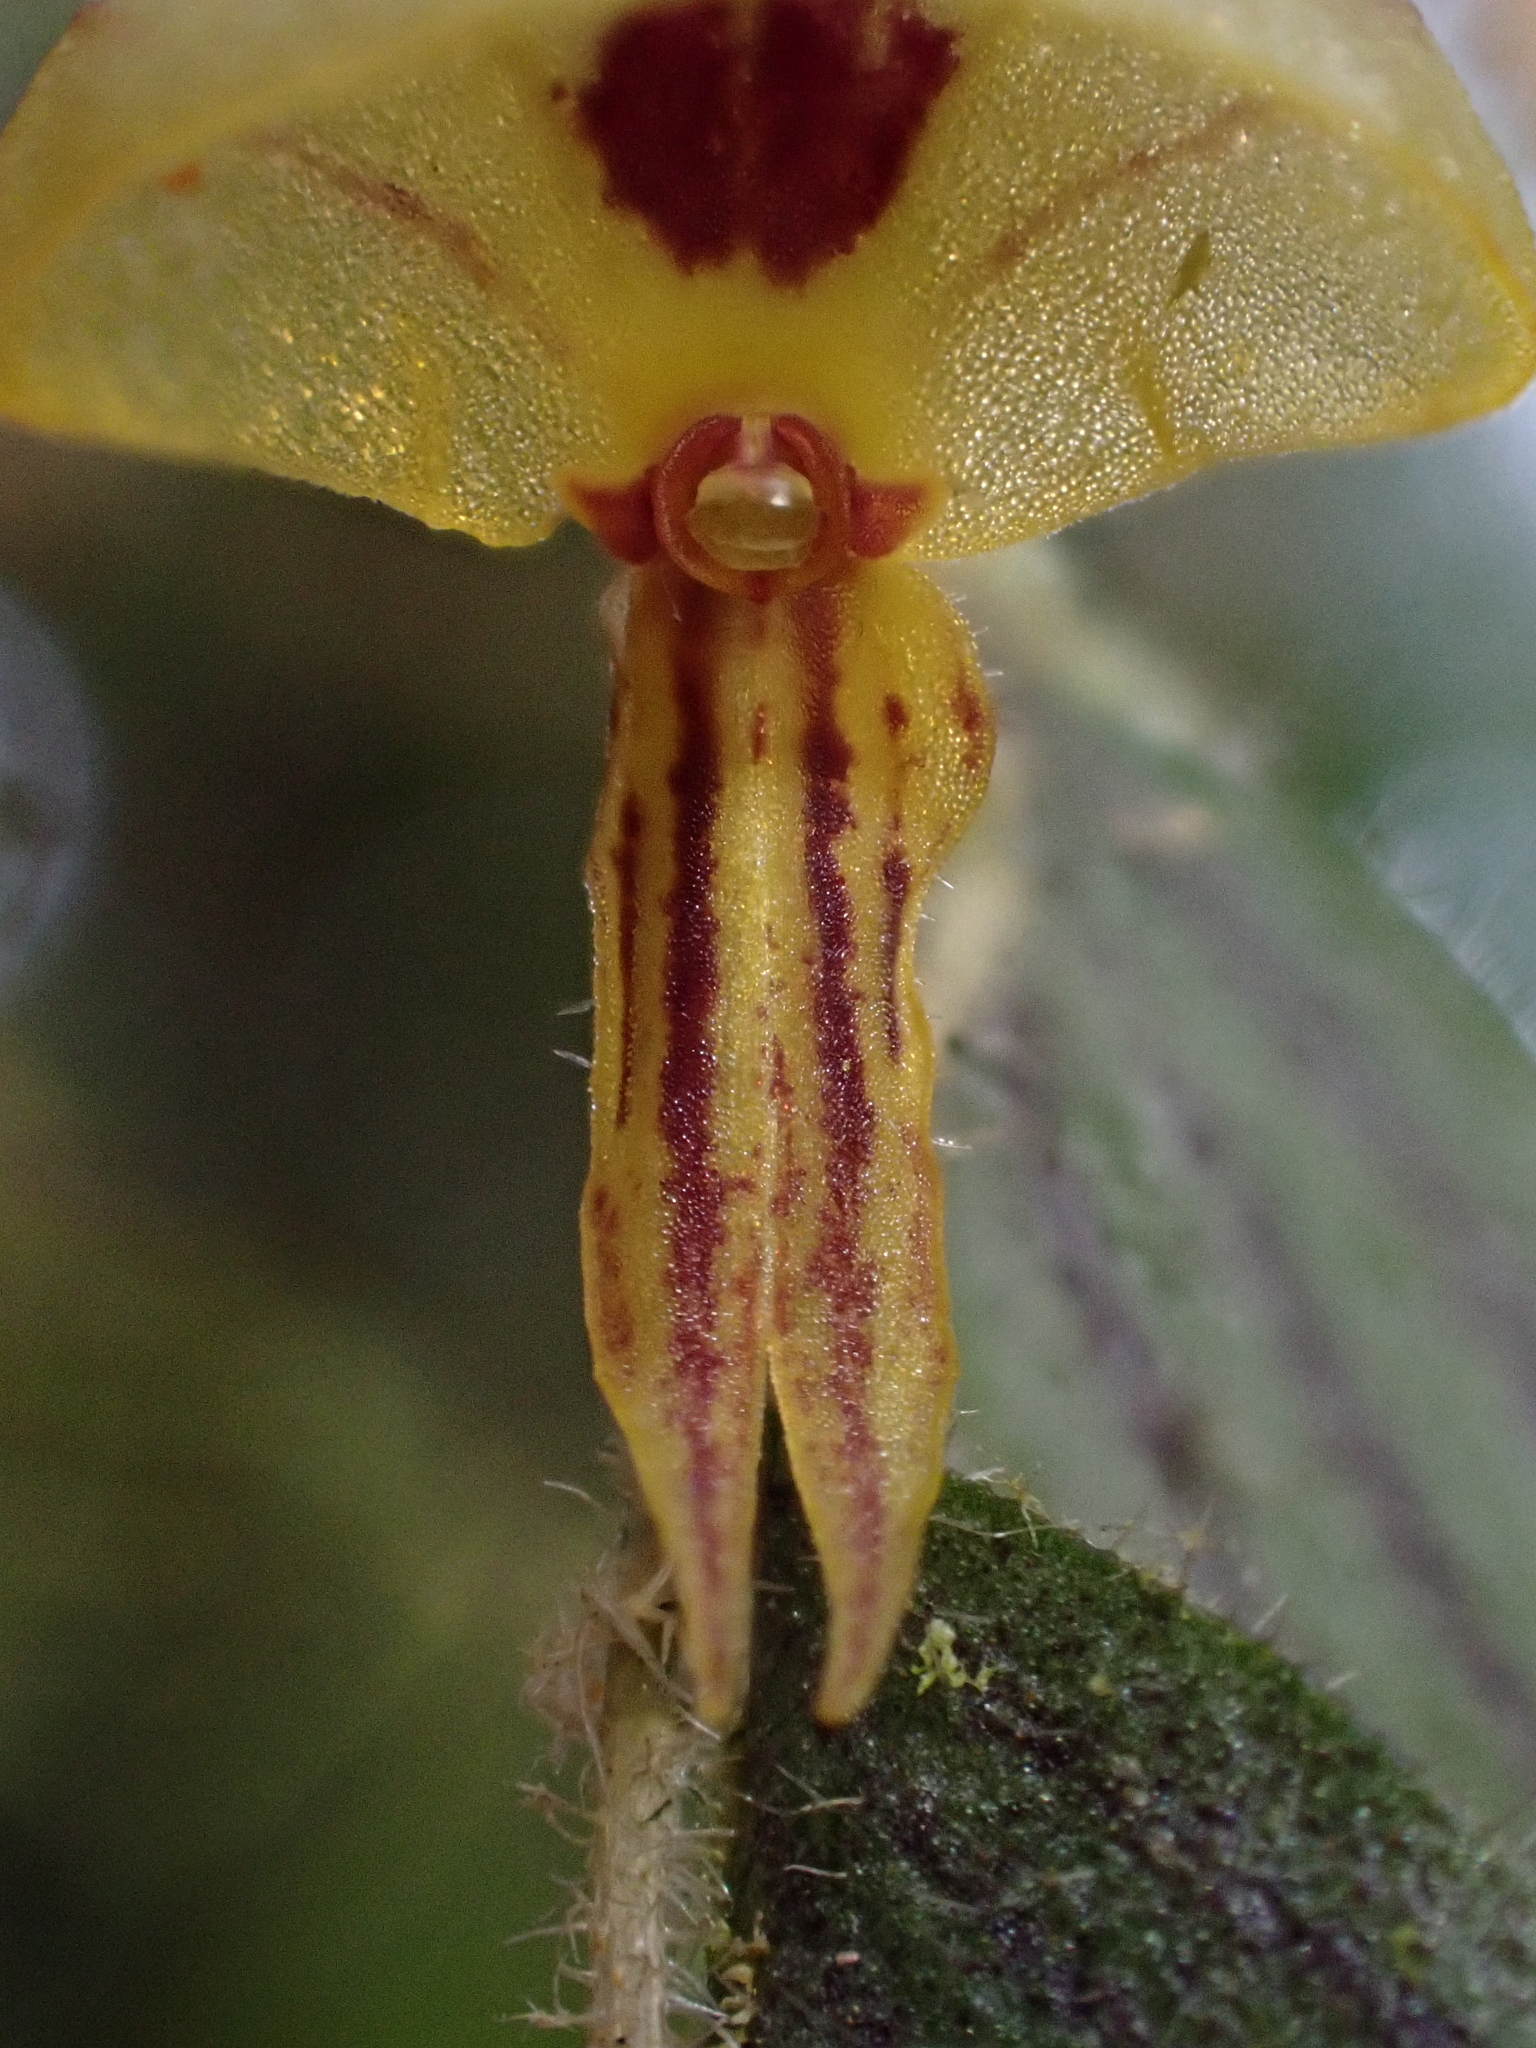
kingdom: Plantae
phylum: Tracheophyta
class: Liliopsida
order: Asparagales
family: Orchidaceae
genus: Andinia
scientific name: Andinia pilosella
